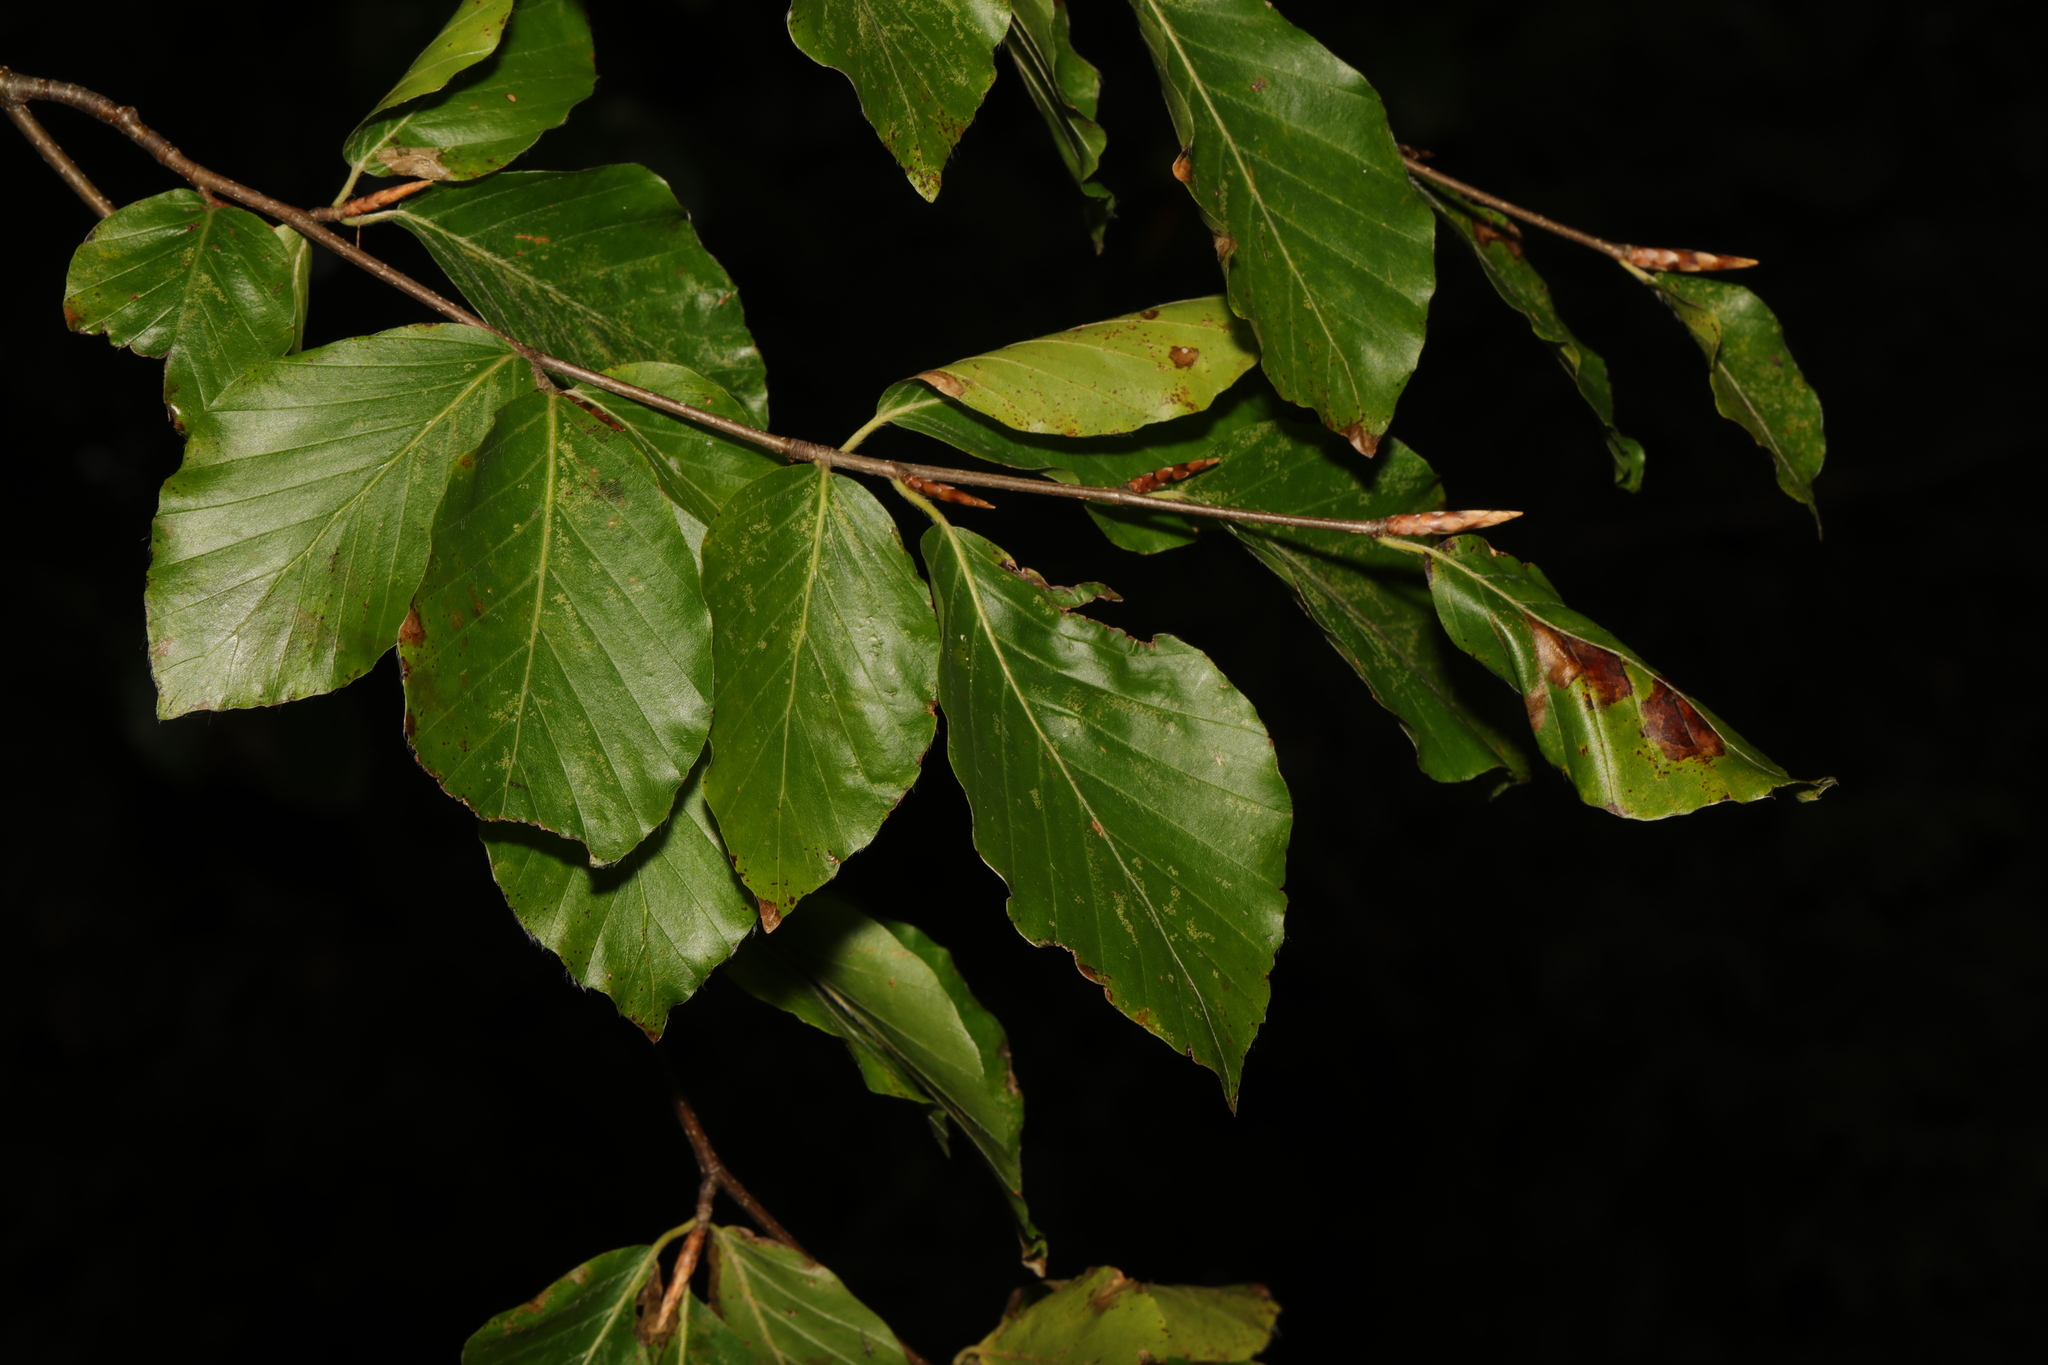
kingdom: Plantae
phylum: Tracheophyta
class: Magnoliopsida
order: Fagales
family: Fagaceae
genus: Fagus
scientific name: Fagus sylvatica
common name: Beech
